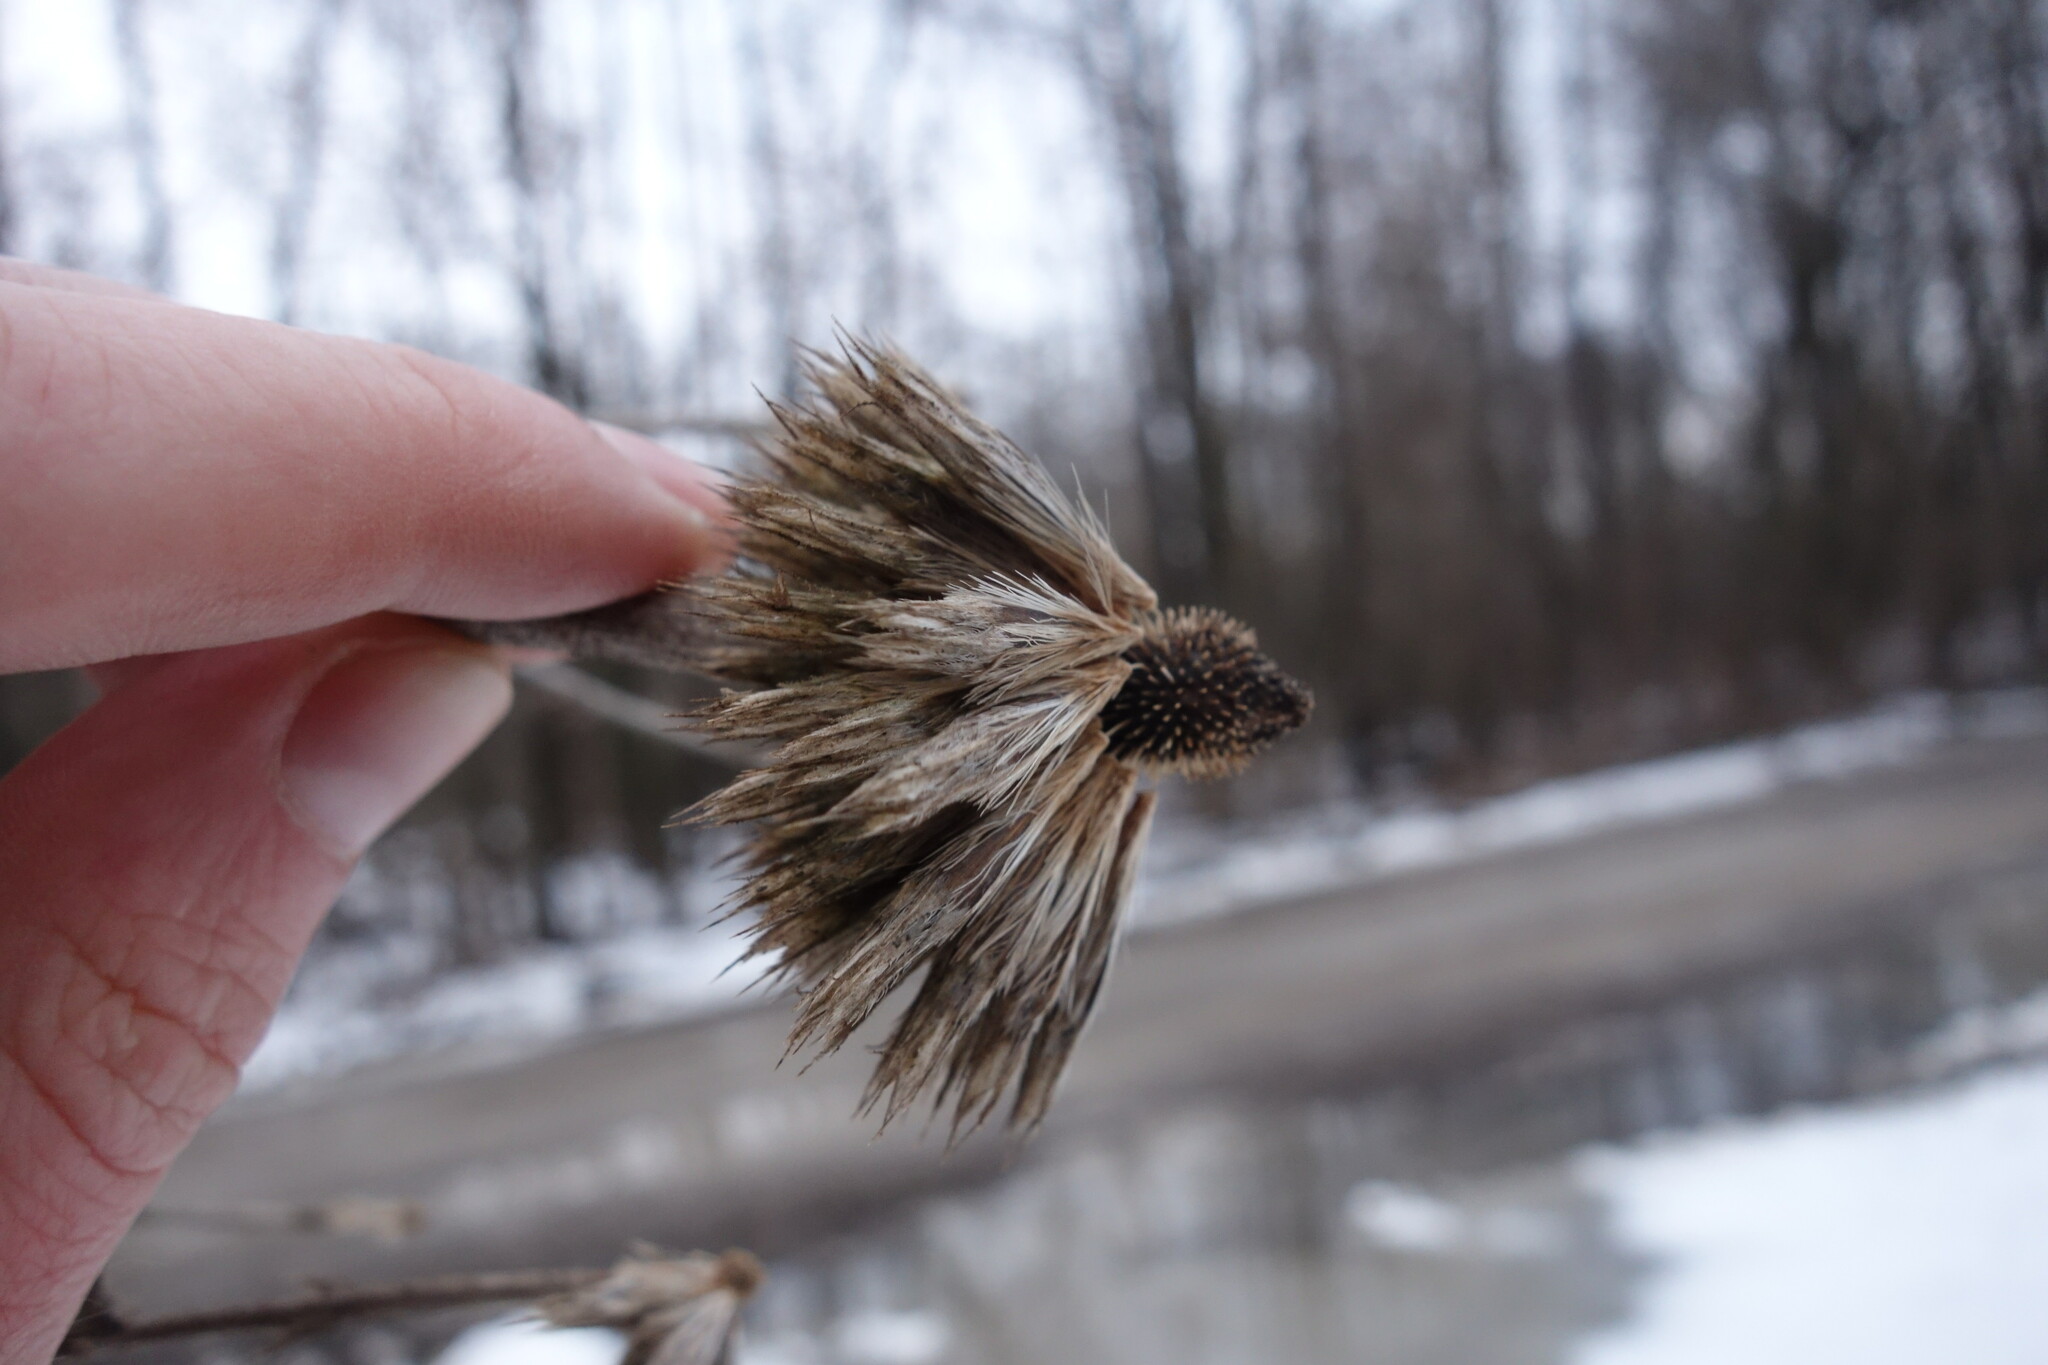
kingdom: Plantae
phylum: Tracheophyta
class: Magnoliopsida
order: Asterales
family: Asteraceae
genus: Echinops
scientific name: Echinops sphaerocephalus
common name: Glandular globe-thistle
